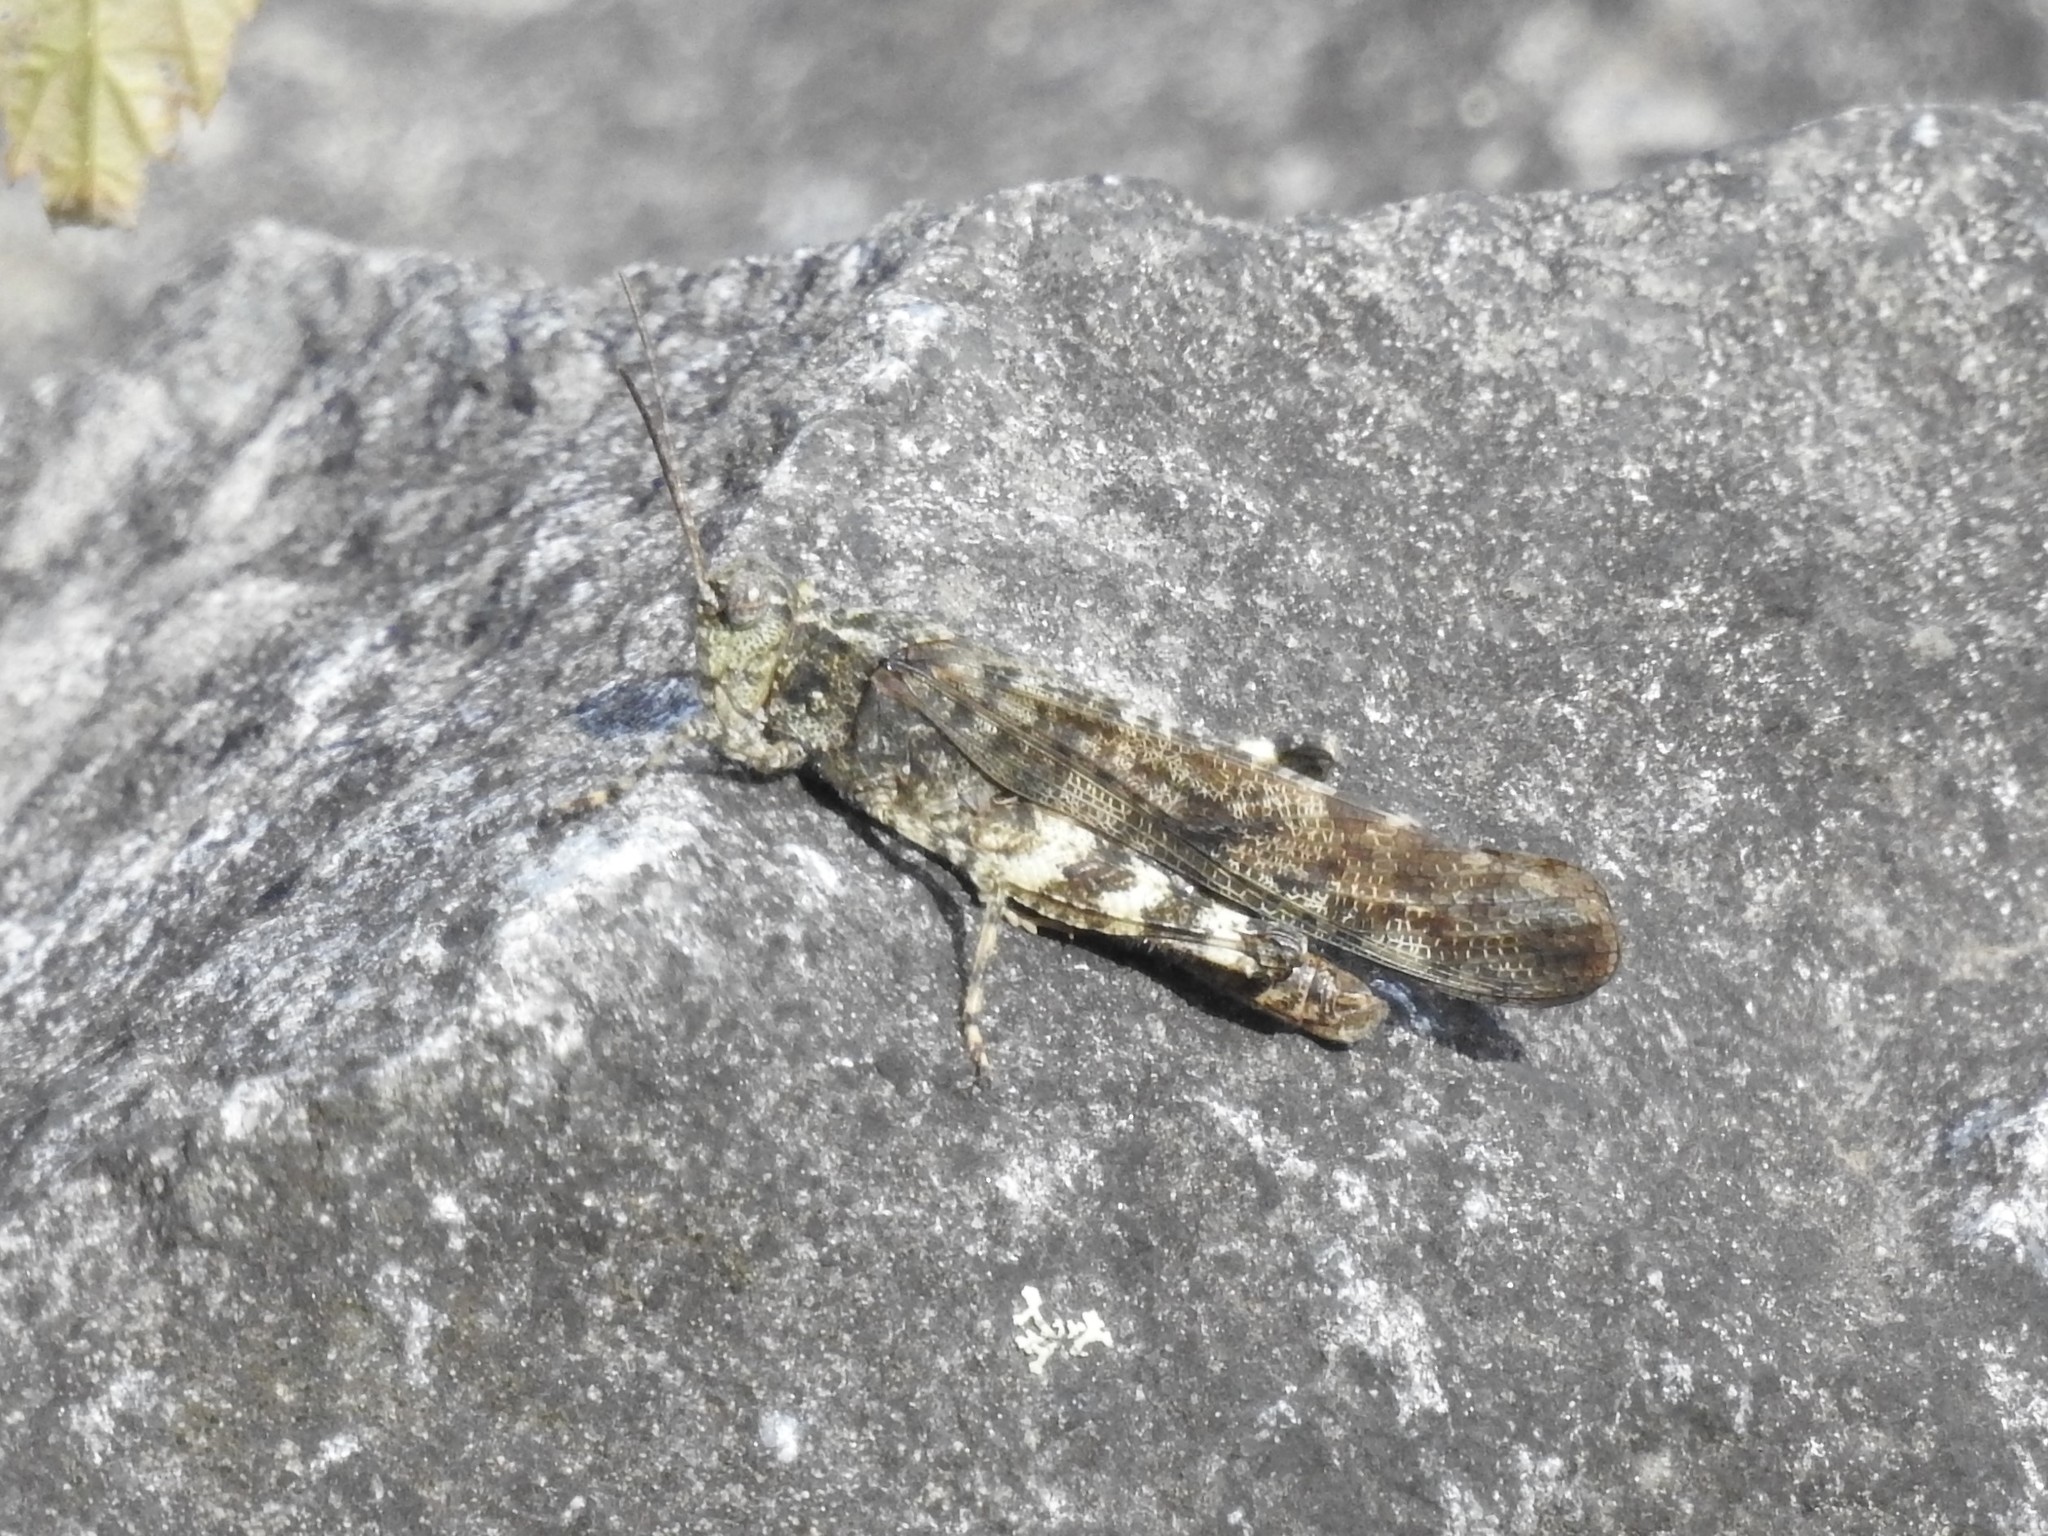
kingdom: Animalia
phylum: Arthropoda
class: Insecta
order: Orthoptera
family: Acrididae
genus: Trimerotropis
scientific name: Trimerotropis verruculata
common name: Crackling forest grasshopper
